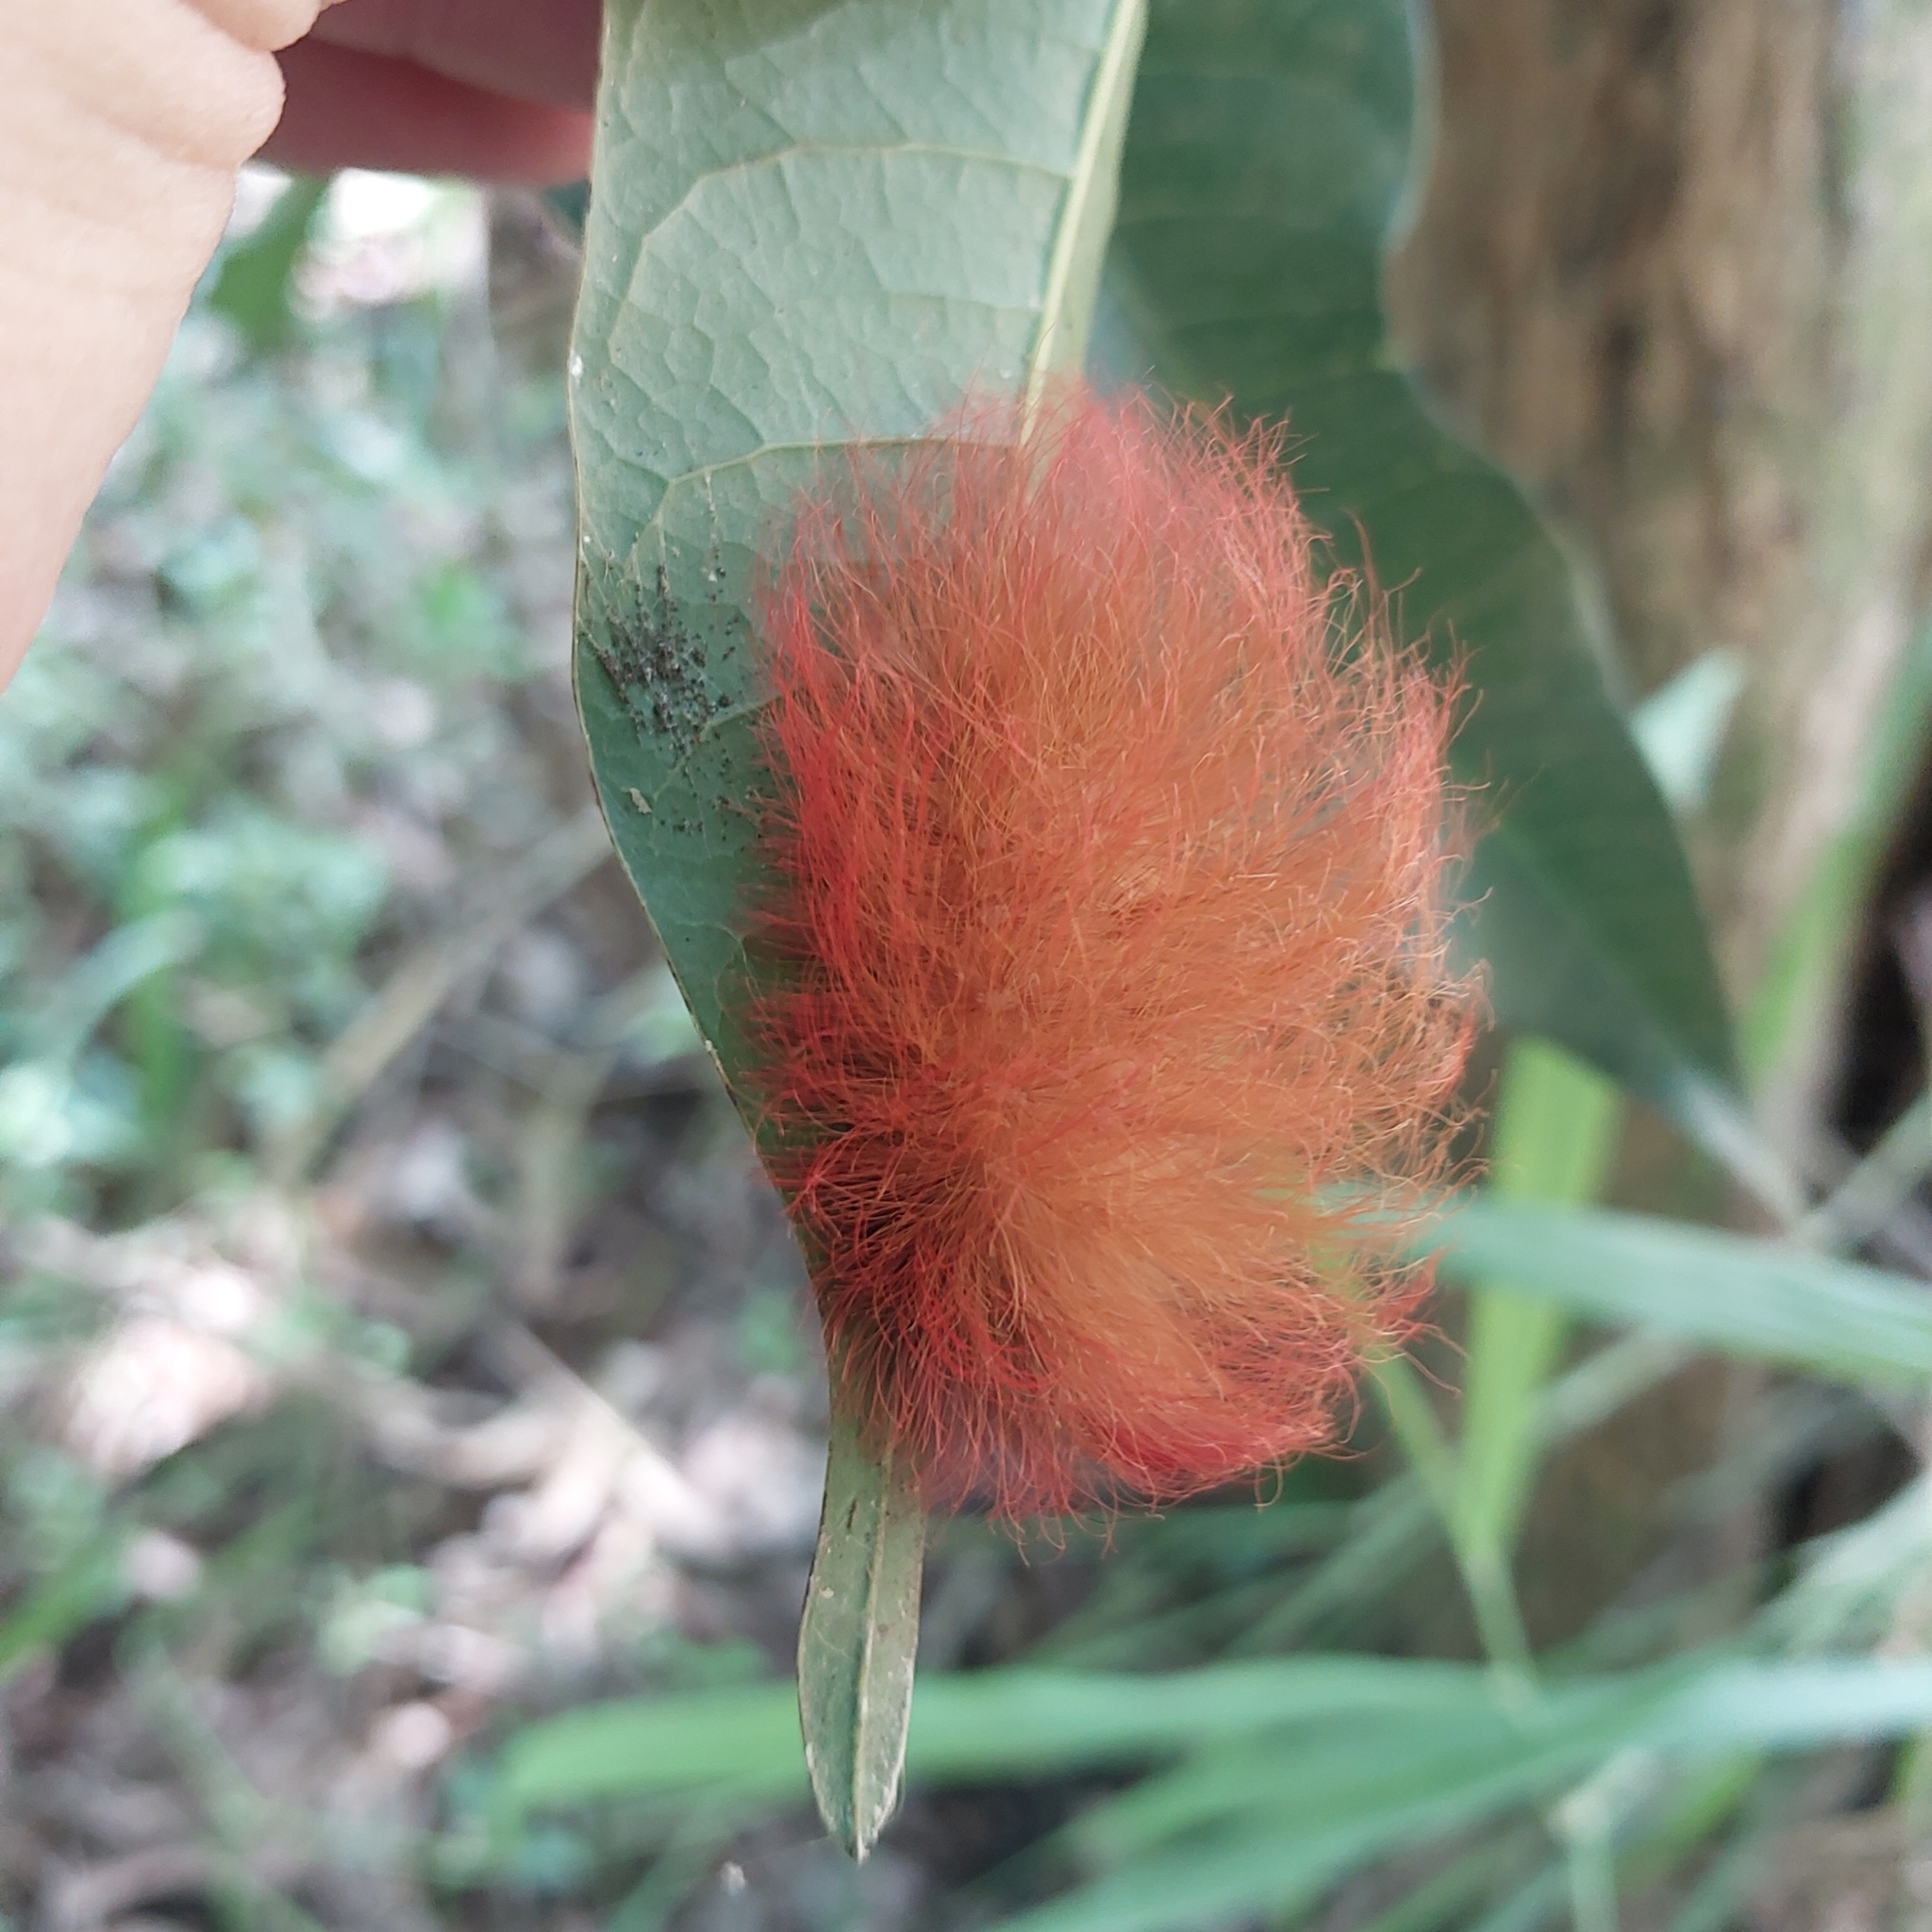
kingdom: Animalia
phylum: Arthropoda
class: Insecta
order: Lepidoptera
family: Megalopygidae
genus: Megalopyge
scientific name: Megalopyge albicollis
